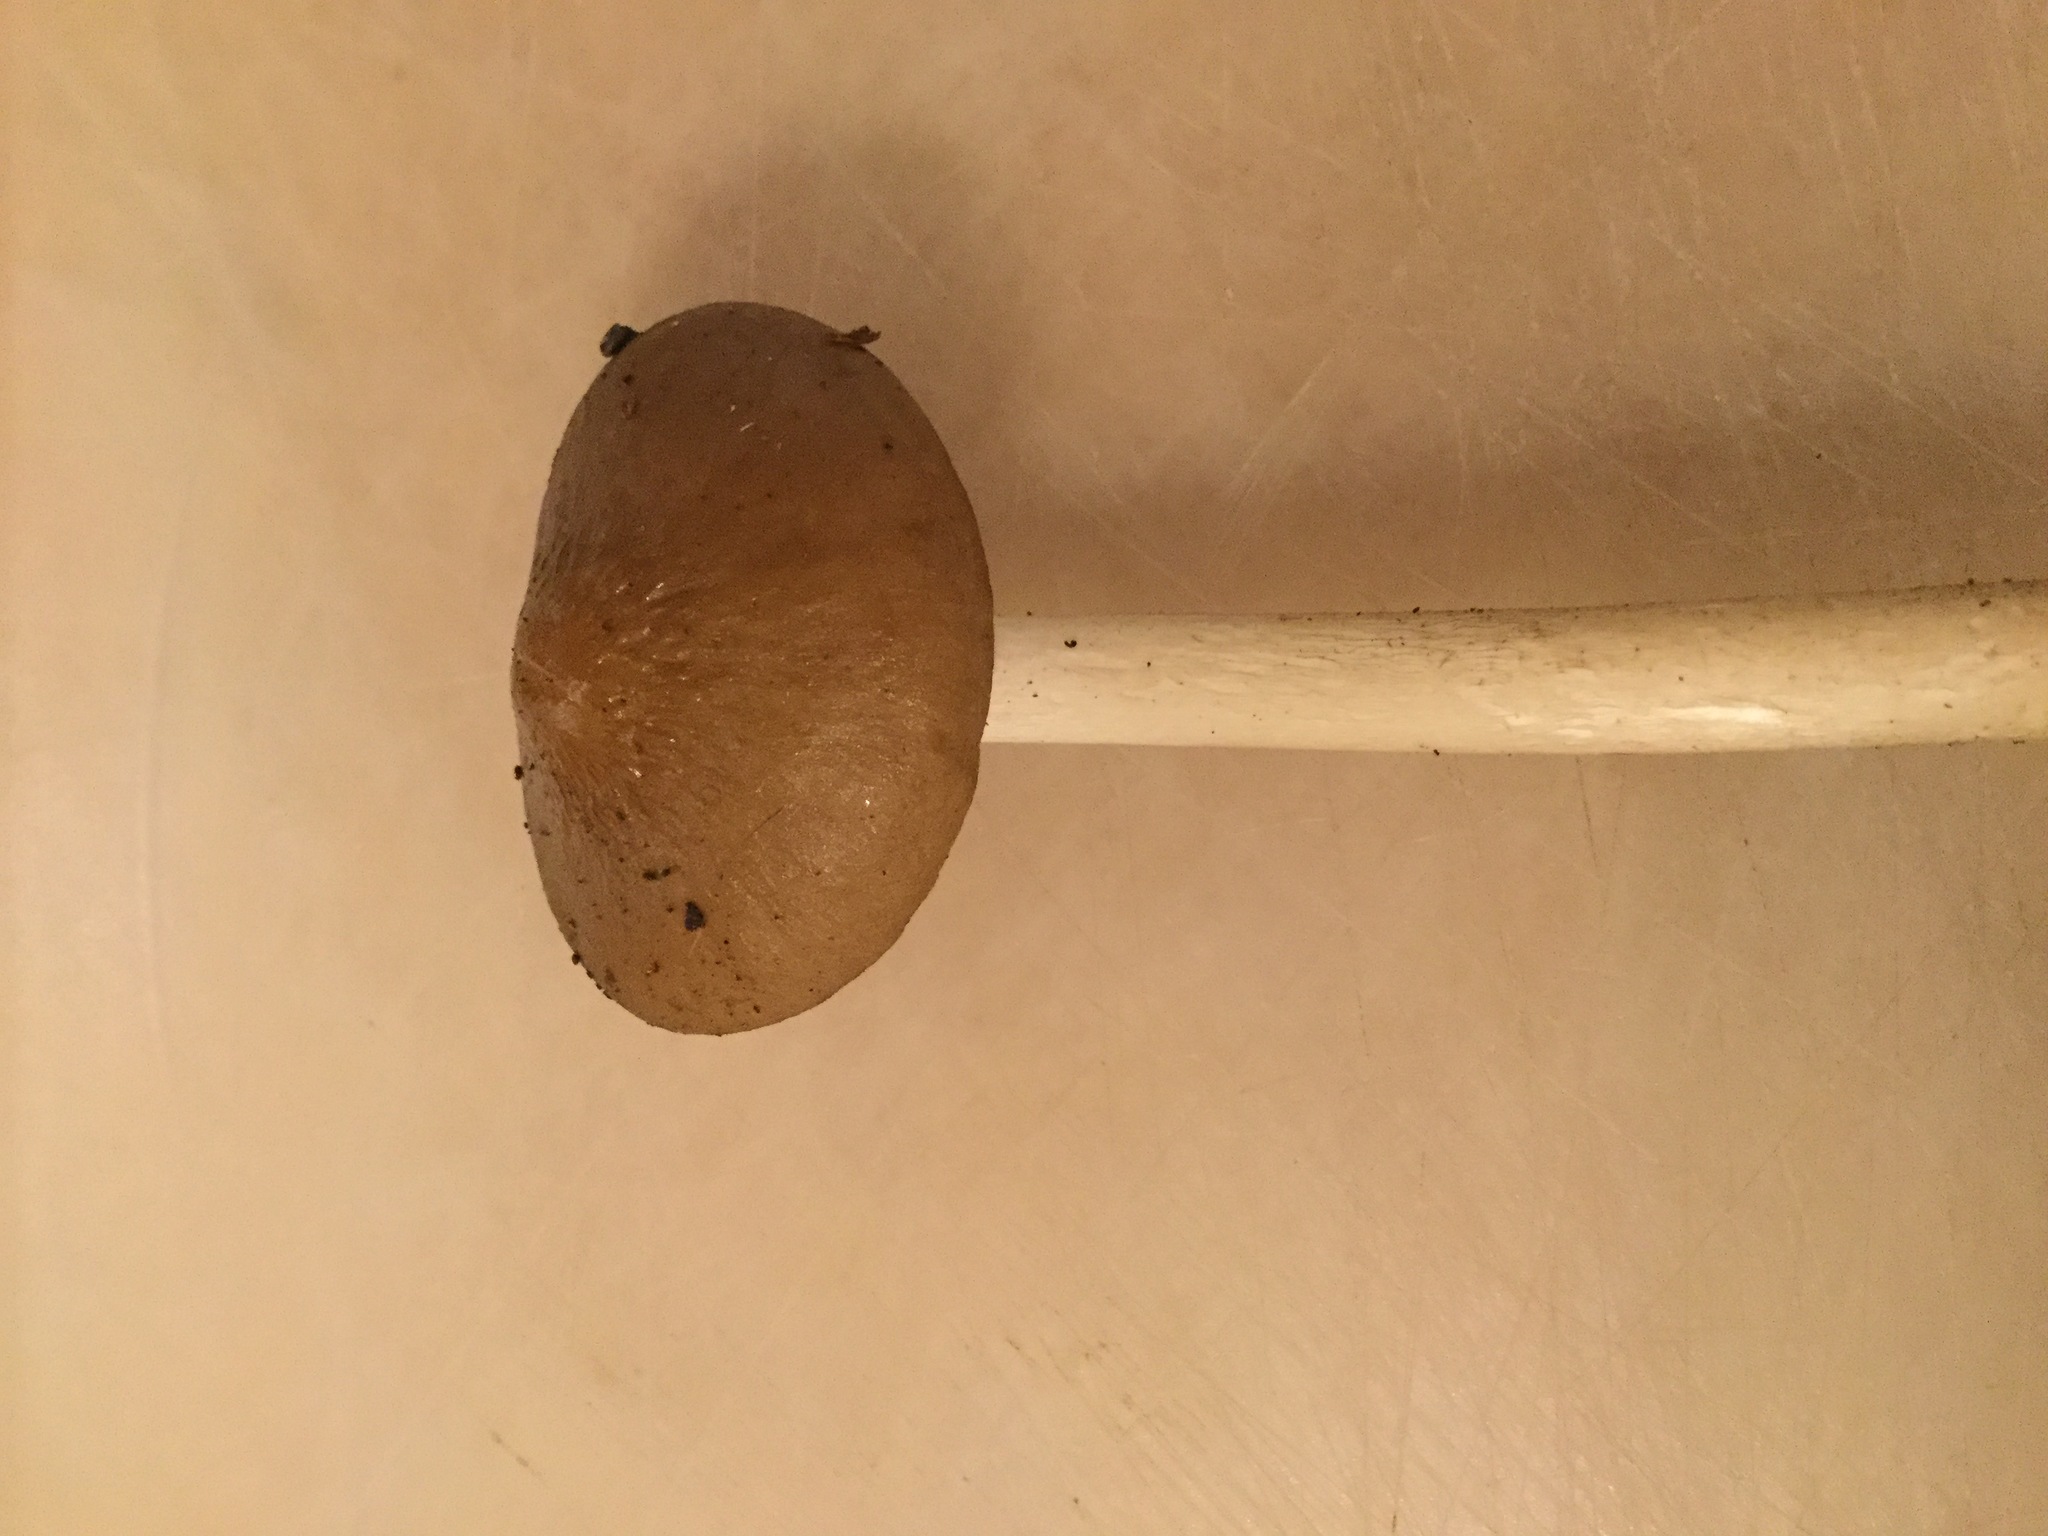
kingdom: Fungi
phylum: Basidiomycota
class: Agaricomycetes
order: Agaricales
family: Physalacriaceae
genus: Hymenopellis
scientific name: Hymenopellis radicata
